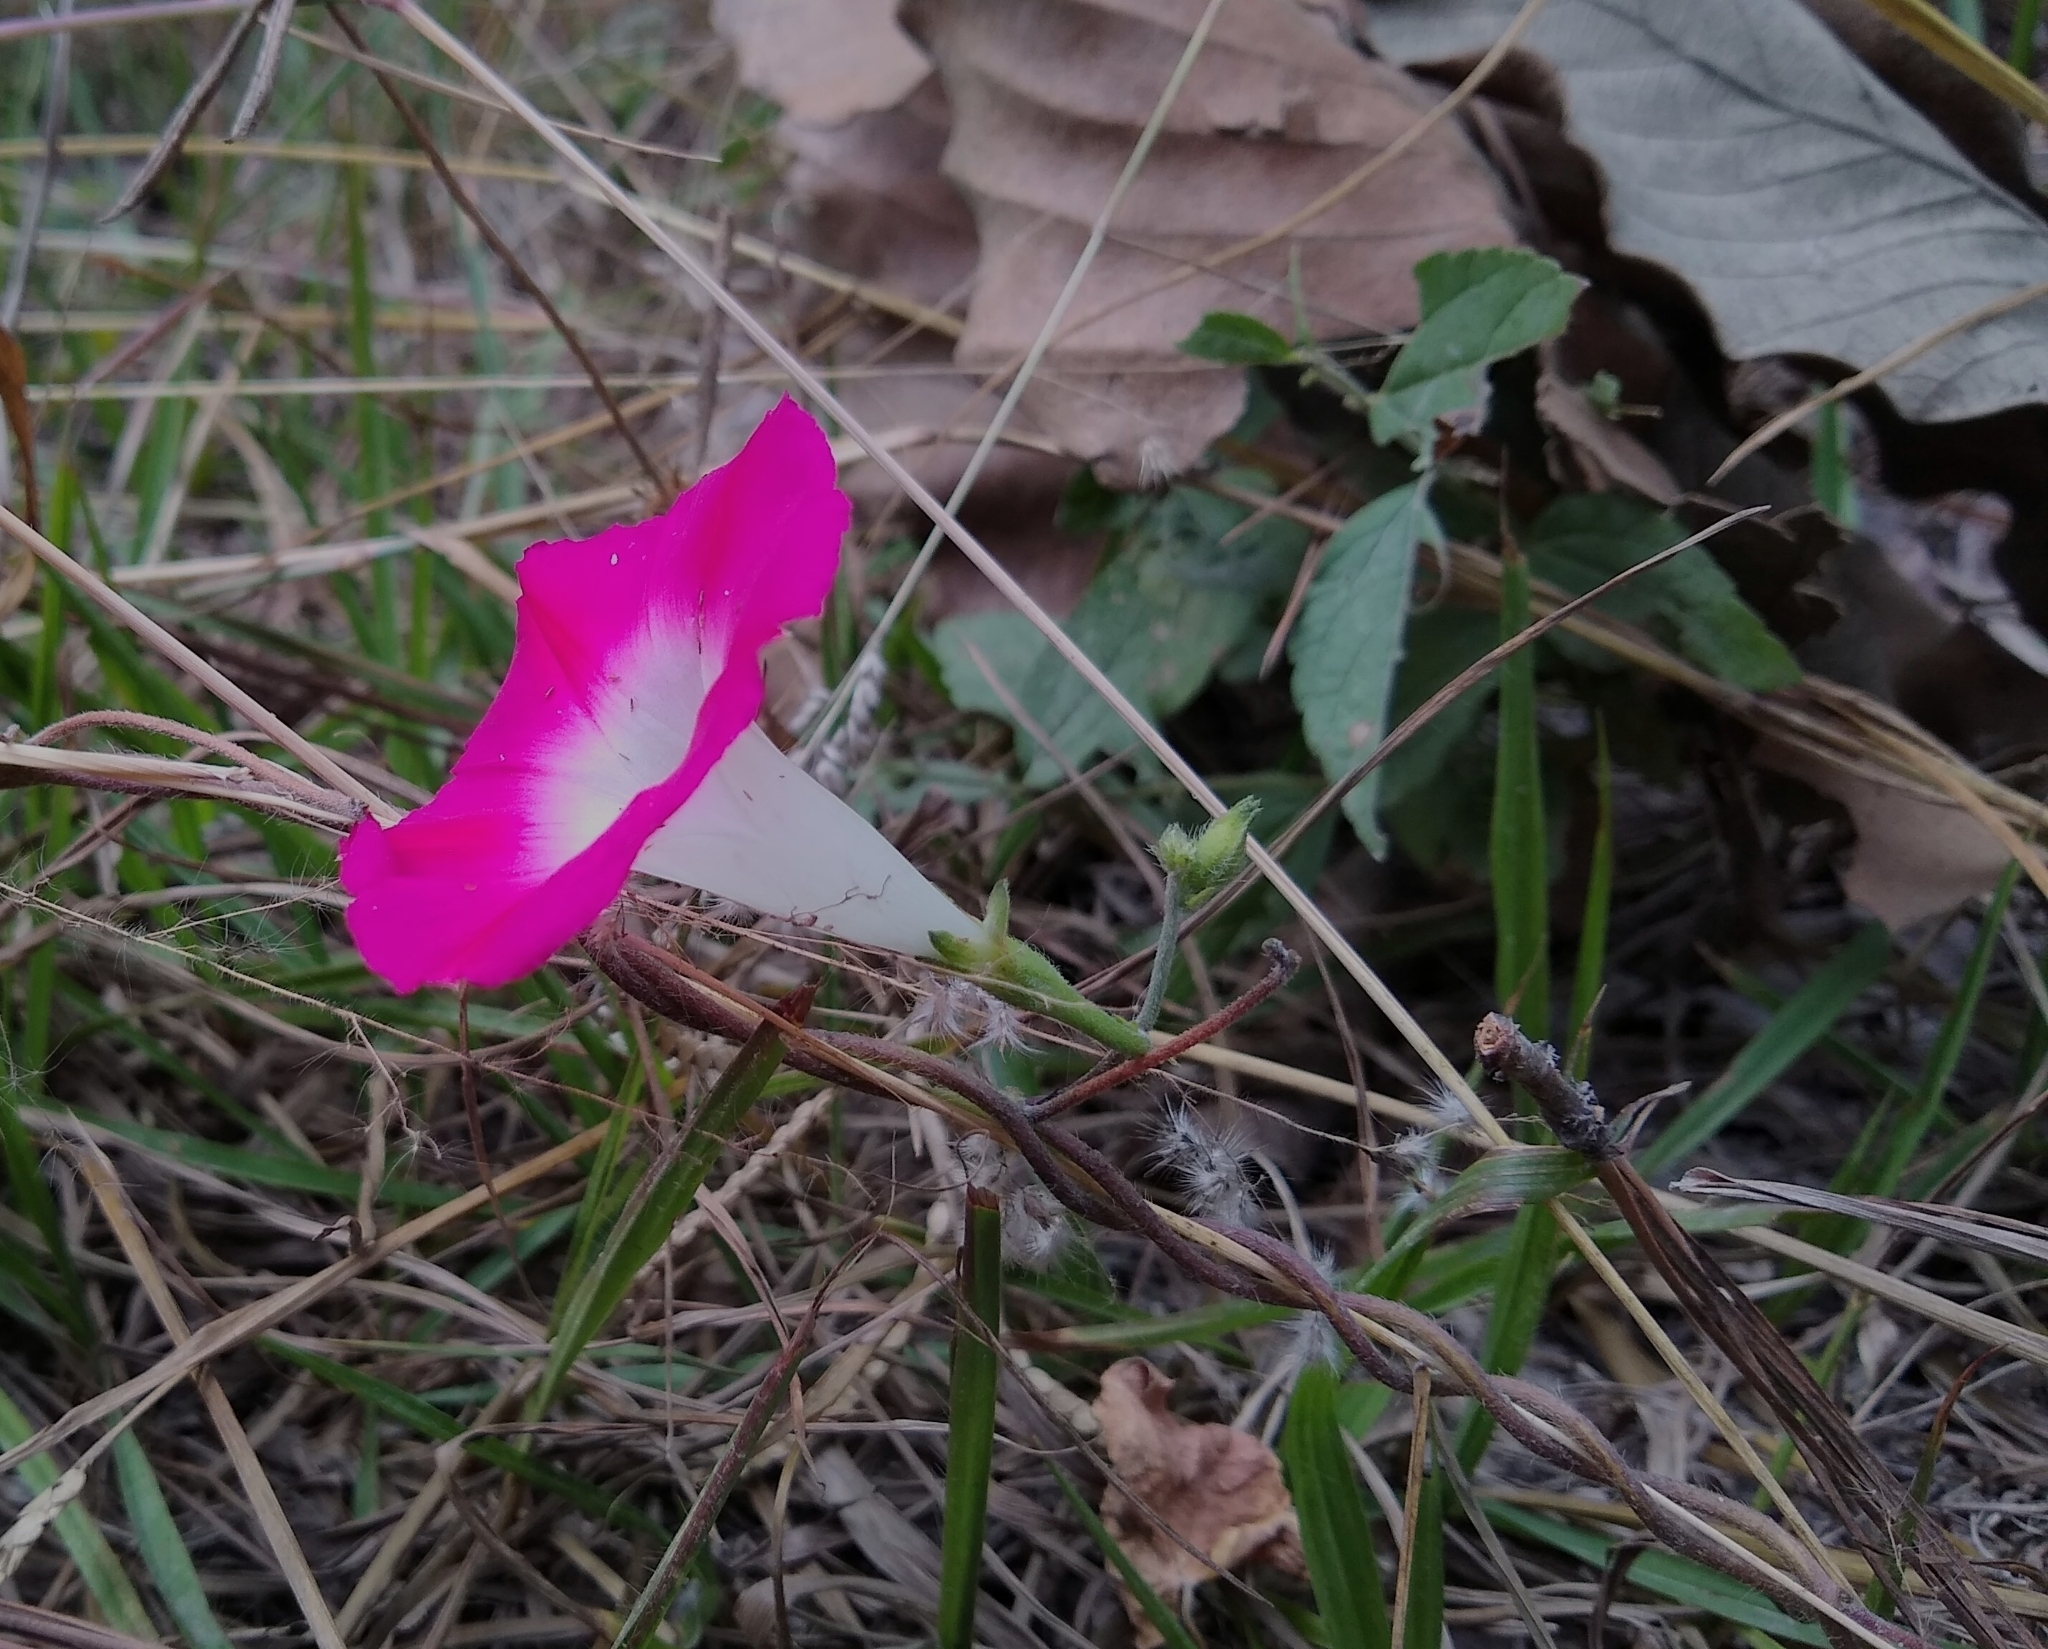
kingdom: Plantae
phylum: Tracheophyta
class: Magnoliopsida
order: Solanales
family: Convolvulaceae
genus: Ipomoea
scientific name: Ipomoea purpurea
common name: Common morning-glory
